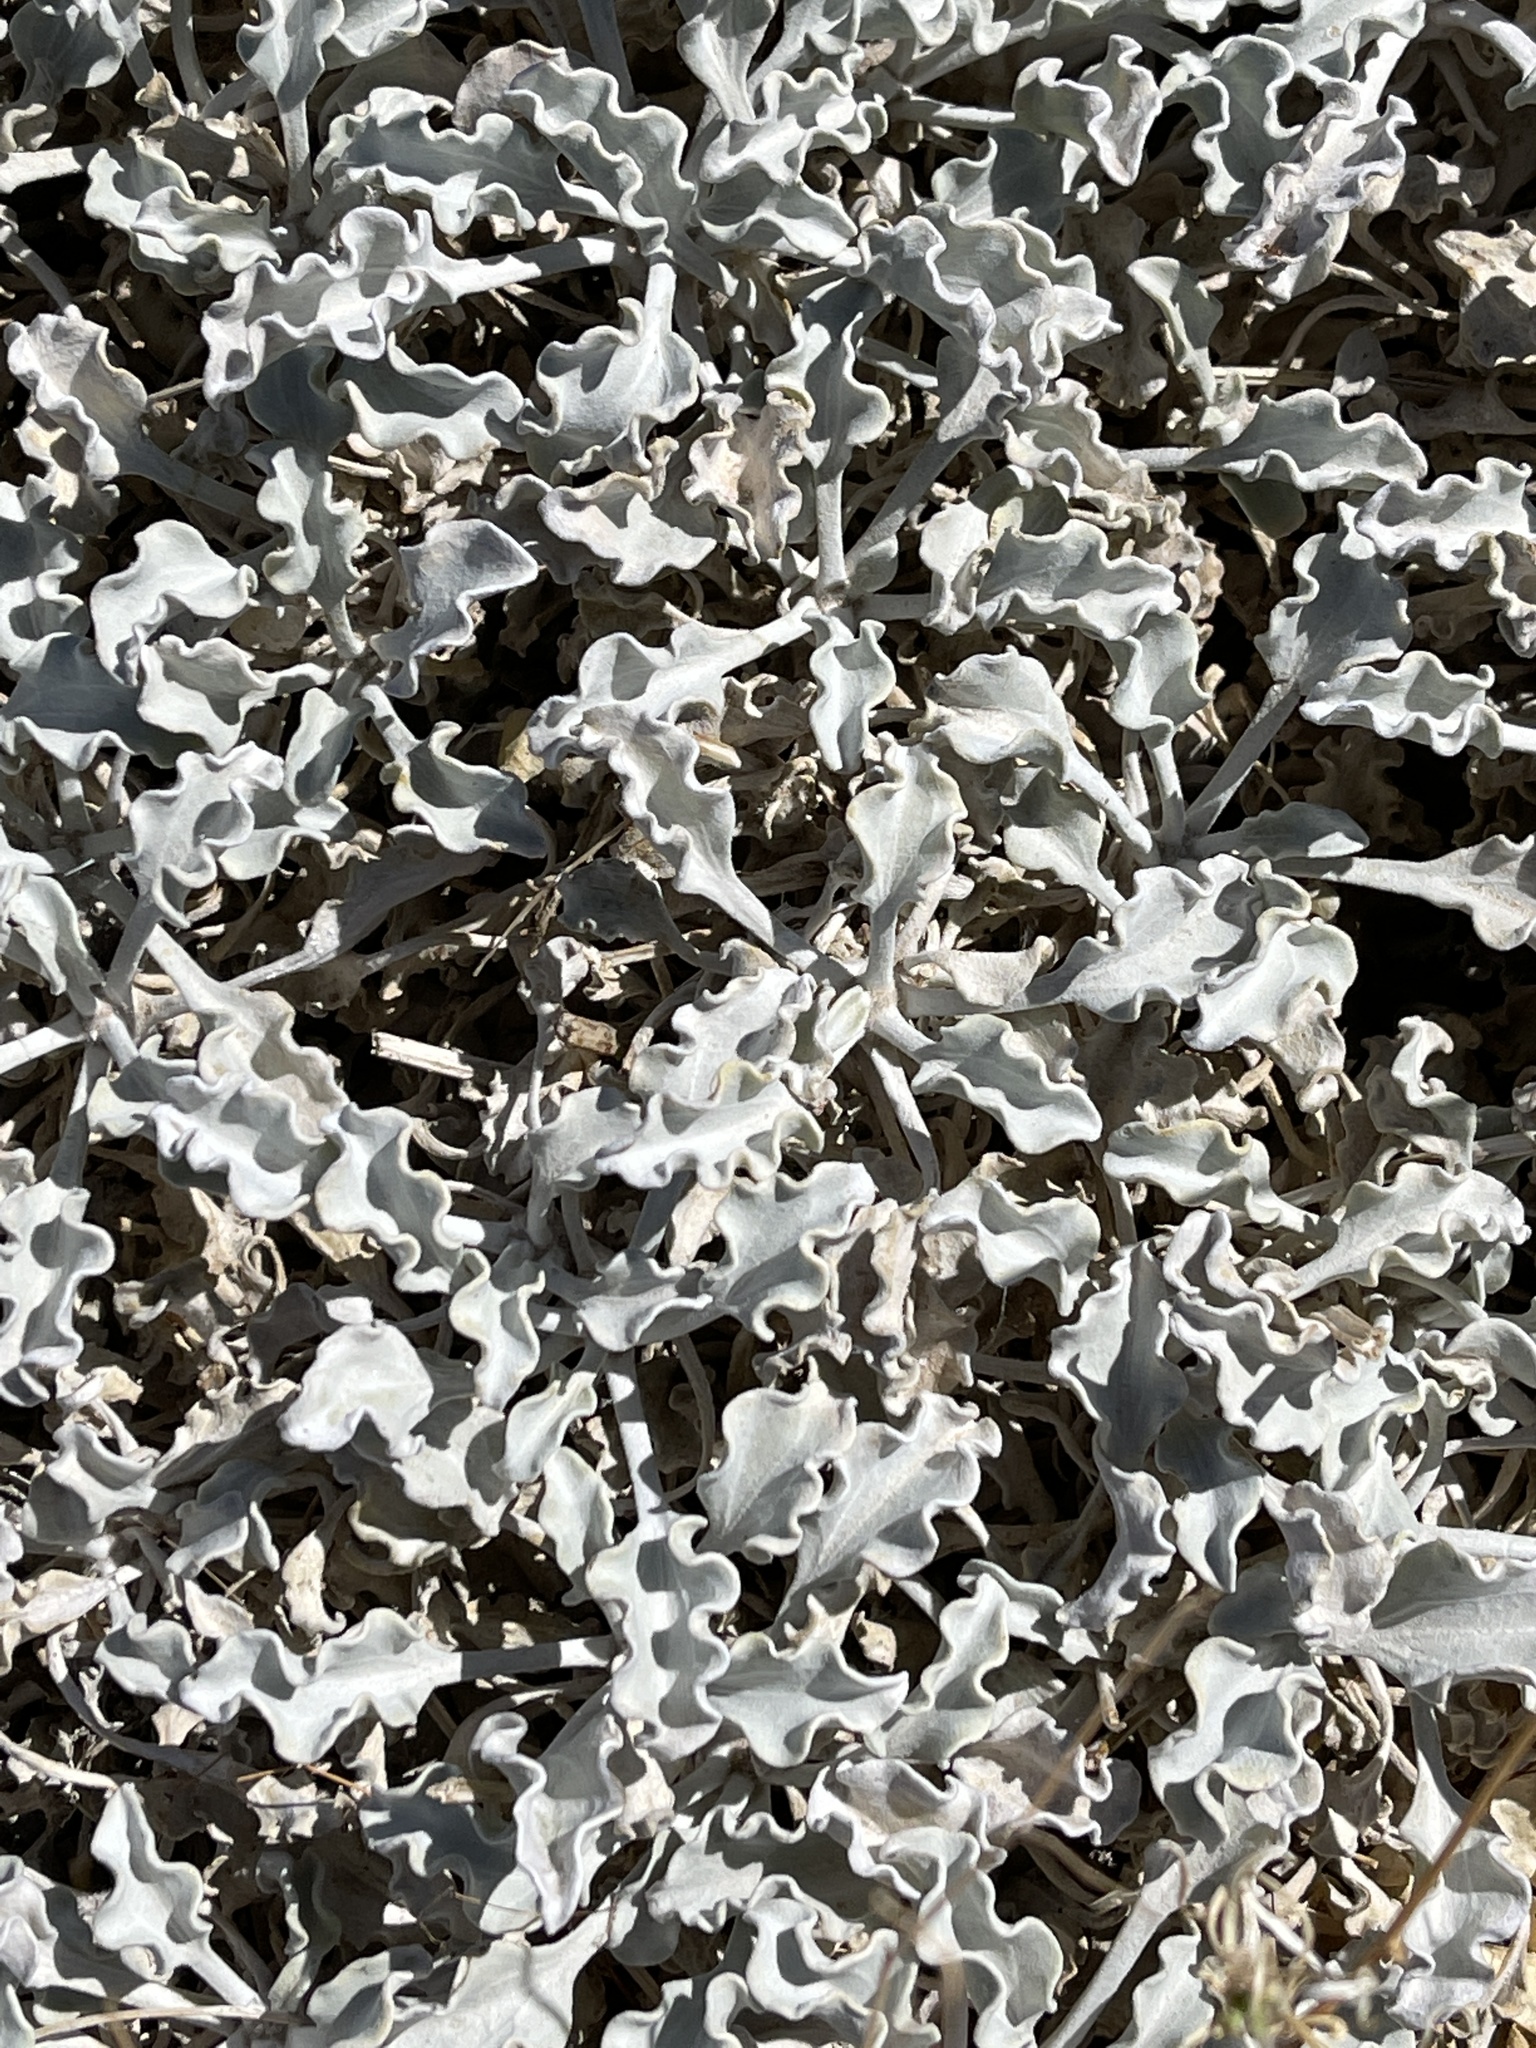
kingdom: Plantae
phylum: Tracheophyta
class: Magnoliopsida
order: Asterales
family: Asteraceae
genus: Enceliopsis
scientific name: Enceliopsis nudicaulis
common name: Naked-stem daisy
